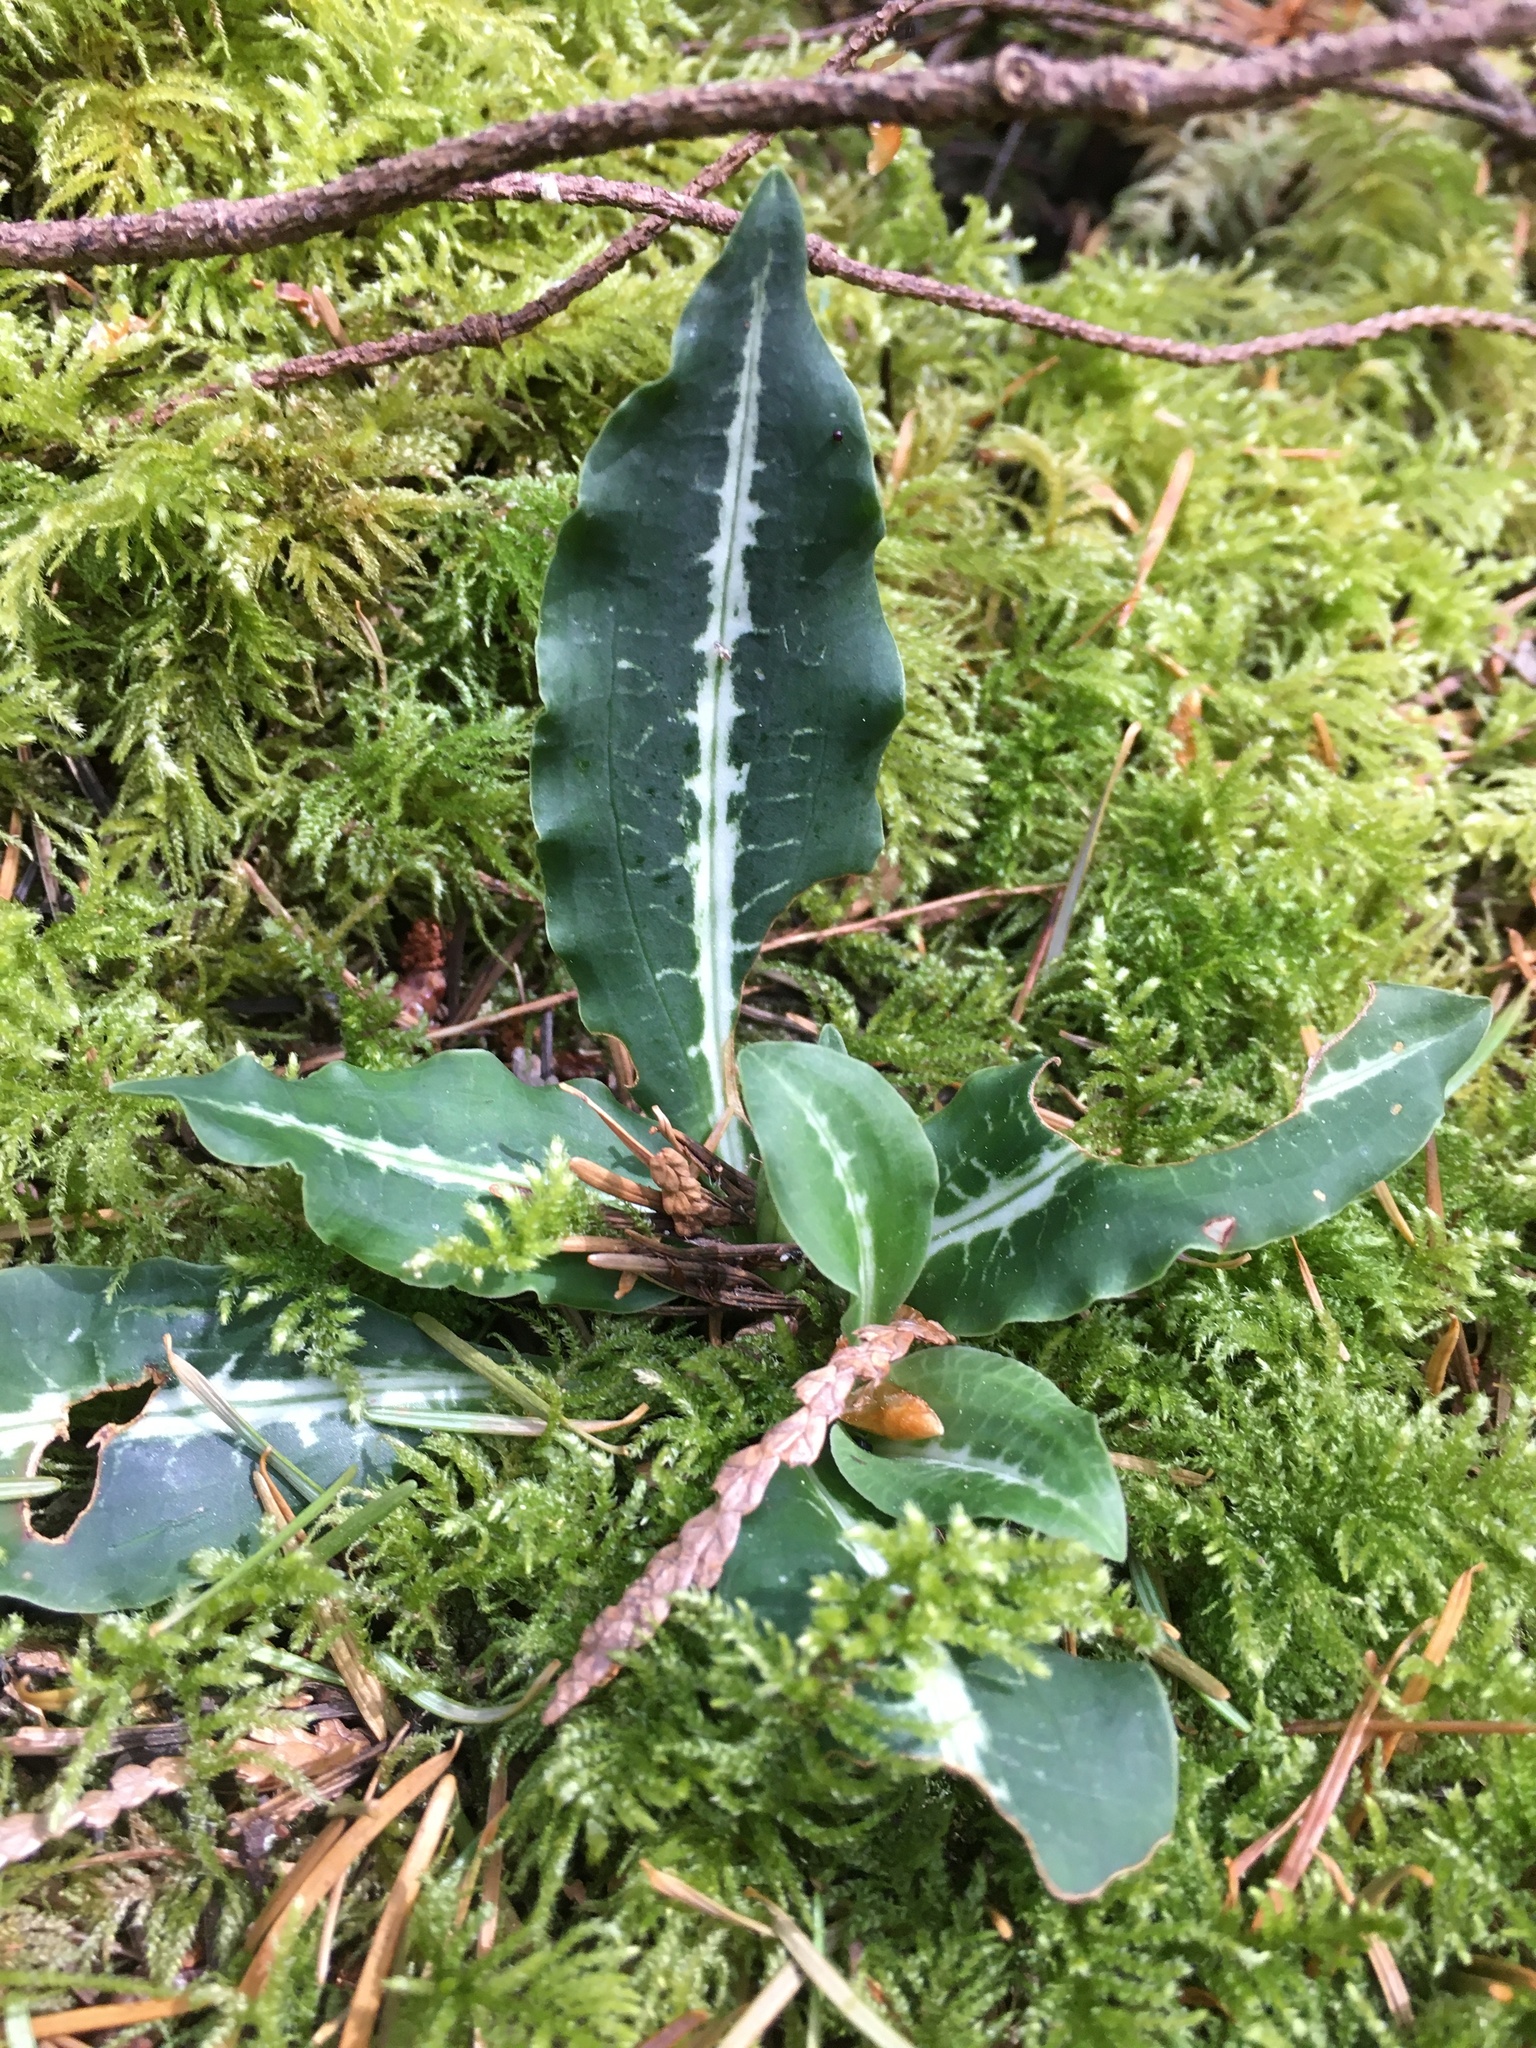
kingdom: Plantae
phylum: Tracheophyta
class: Liliopsida
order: Asparagales
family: Orchidaceae
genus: Goodyera
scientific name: Goodyera oblongifolia
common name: Giant rattlesnake-plantain
